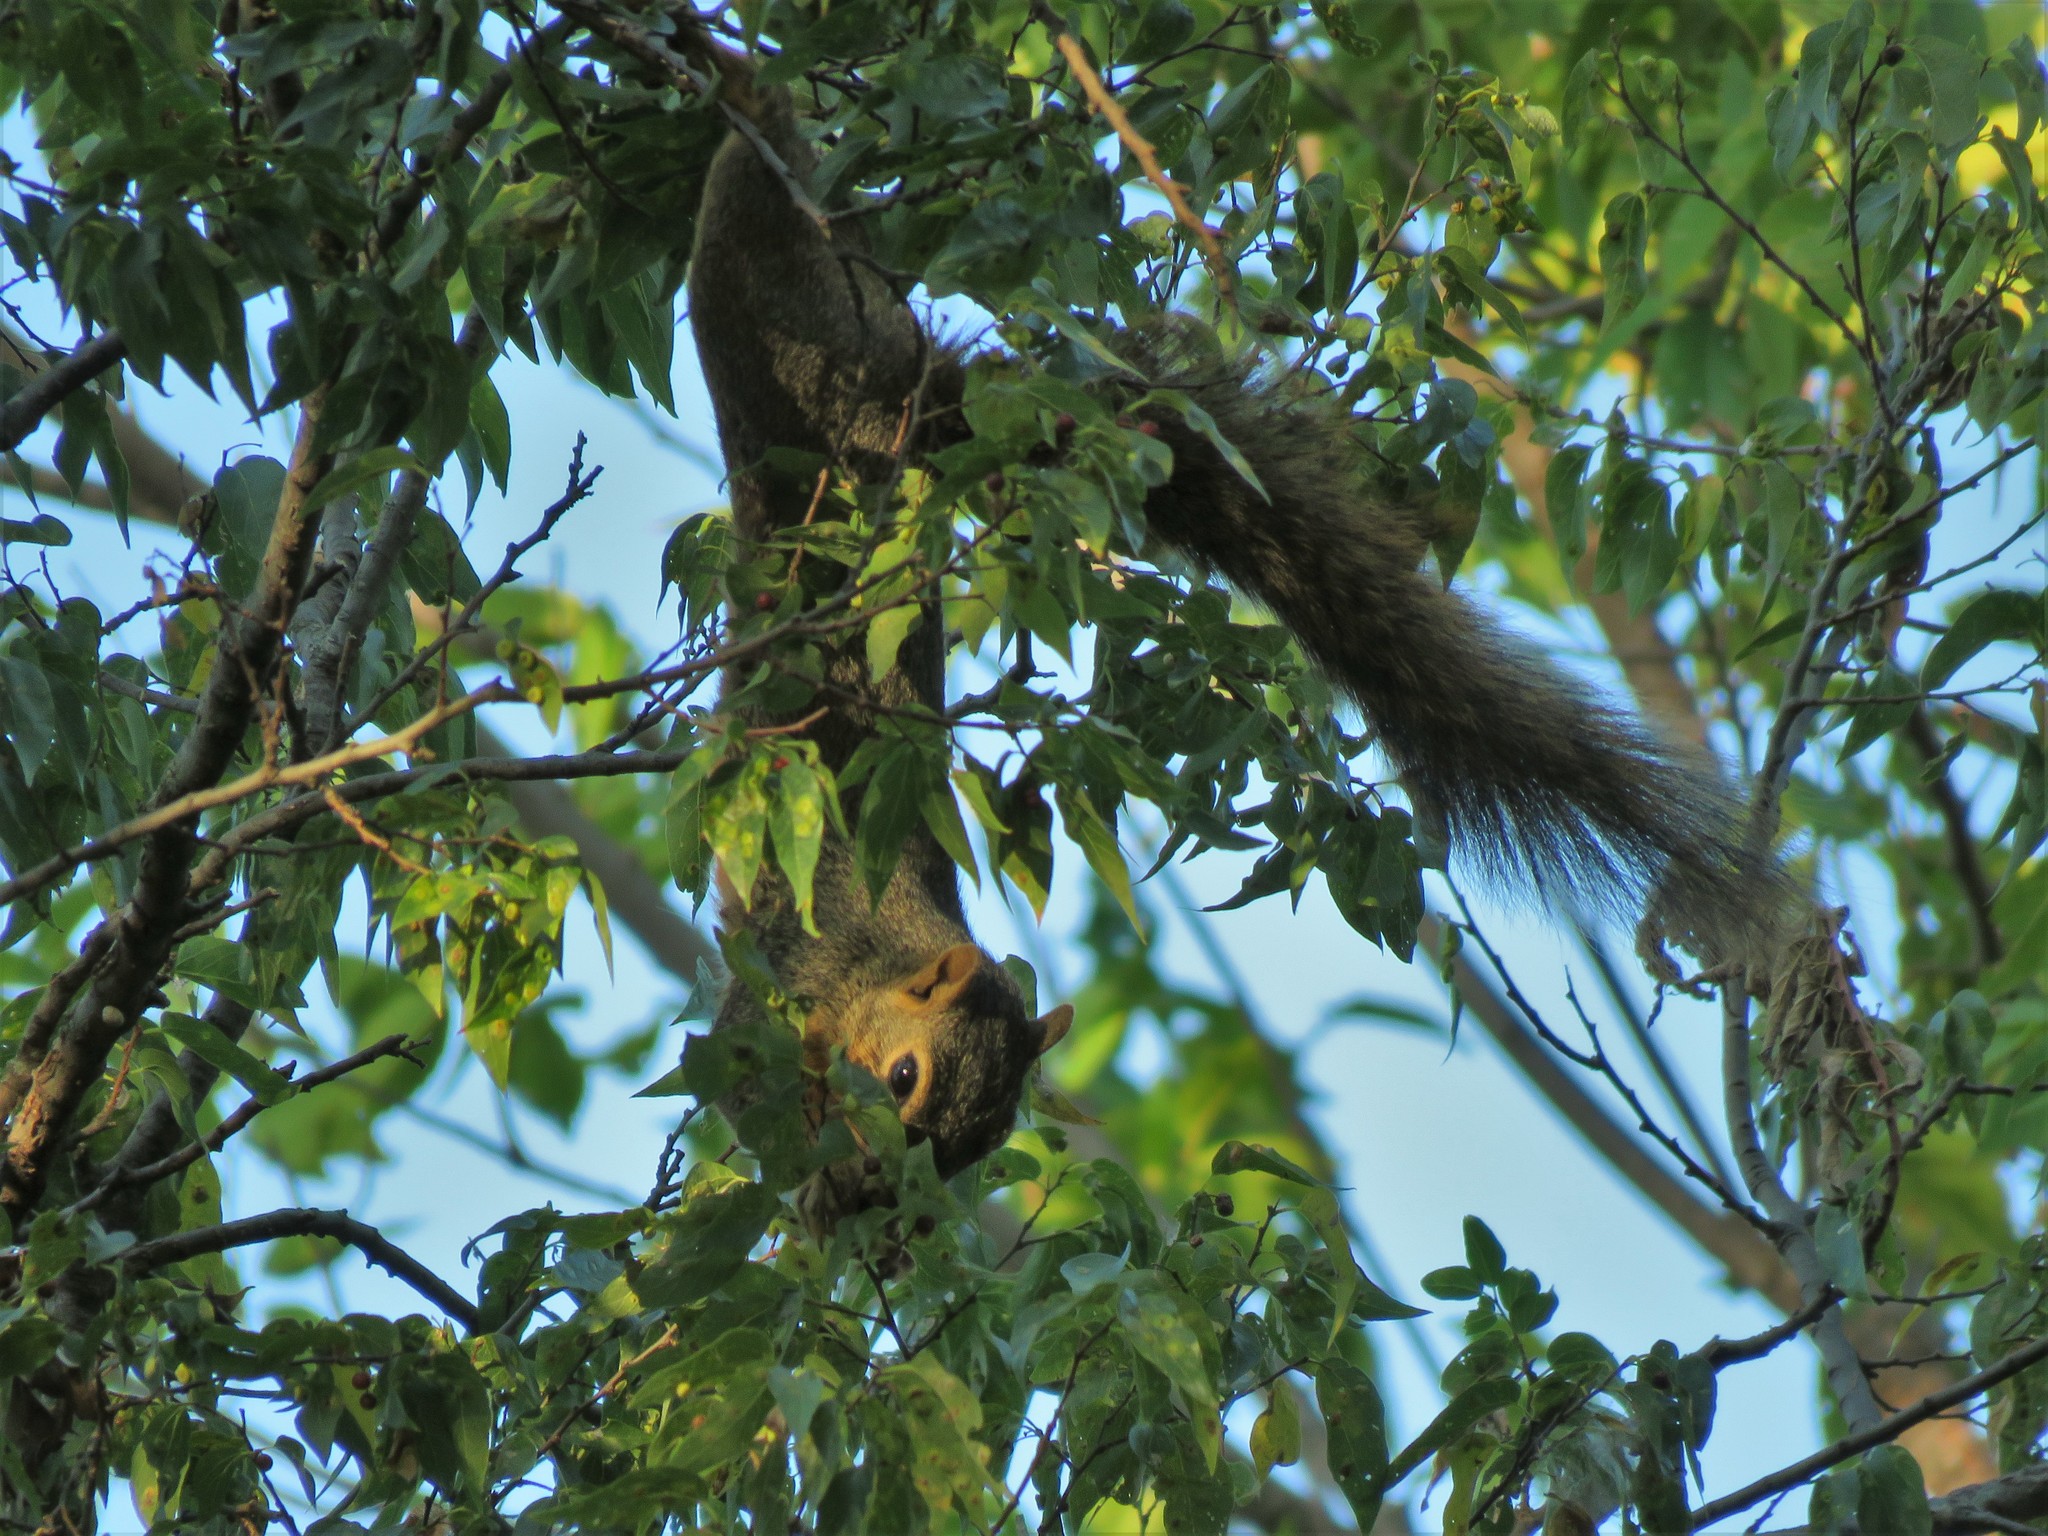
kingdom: Animalia
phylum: Chordata
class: Mammalia
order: Rodentia
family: Sciuridae
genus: Sciurus
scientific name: Sciurus niger
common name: Fox squirrel
